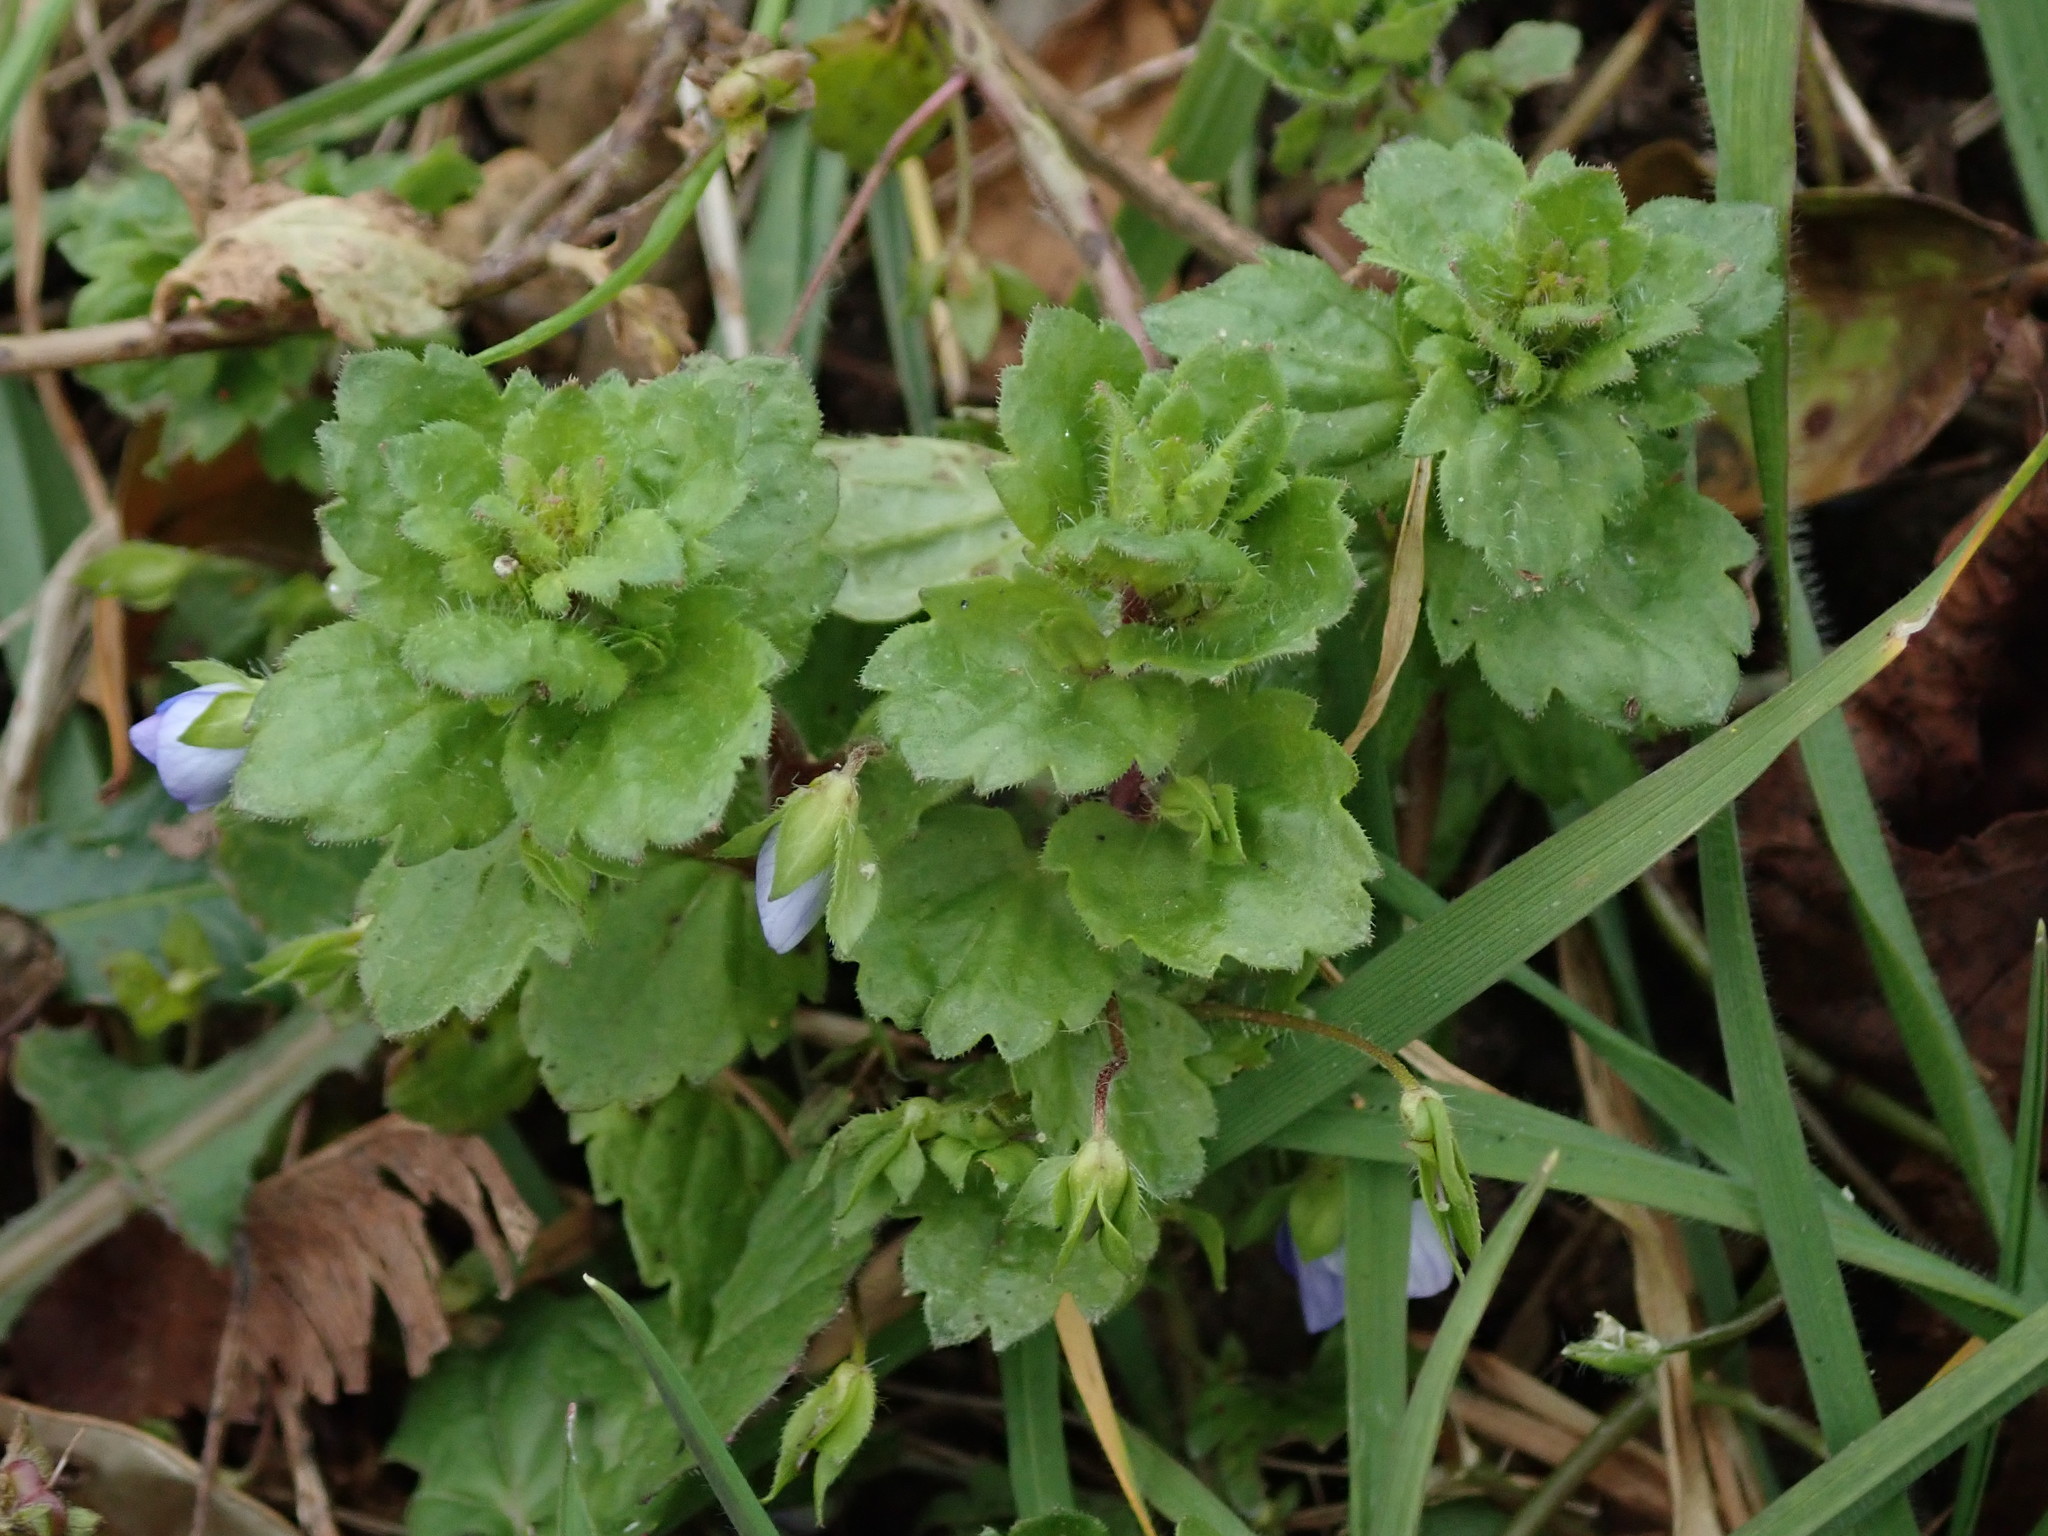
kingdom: Plantae
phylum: Tracheophyta
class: Magnoliopsida
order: Lamiales
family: Plantaginaceae
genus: Veronica
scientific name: Veronica persica
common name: Common field-speedwell
